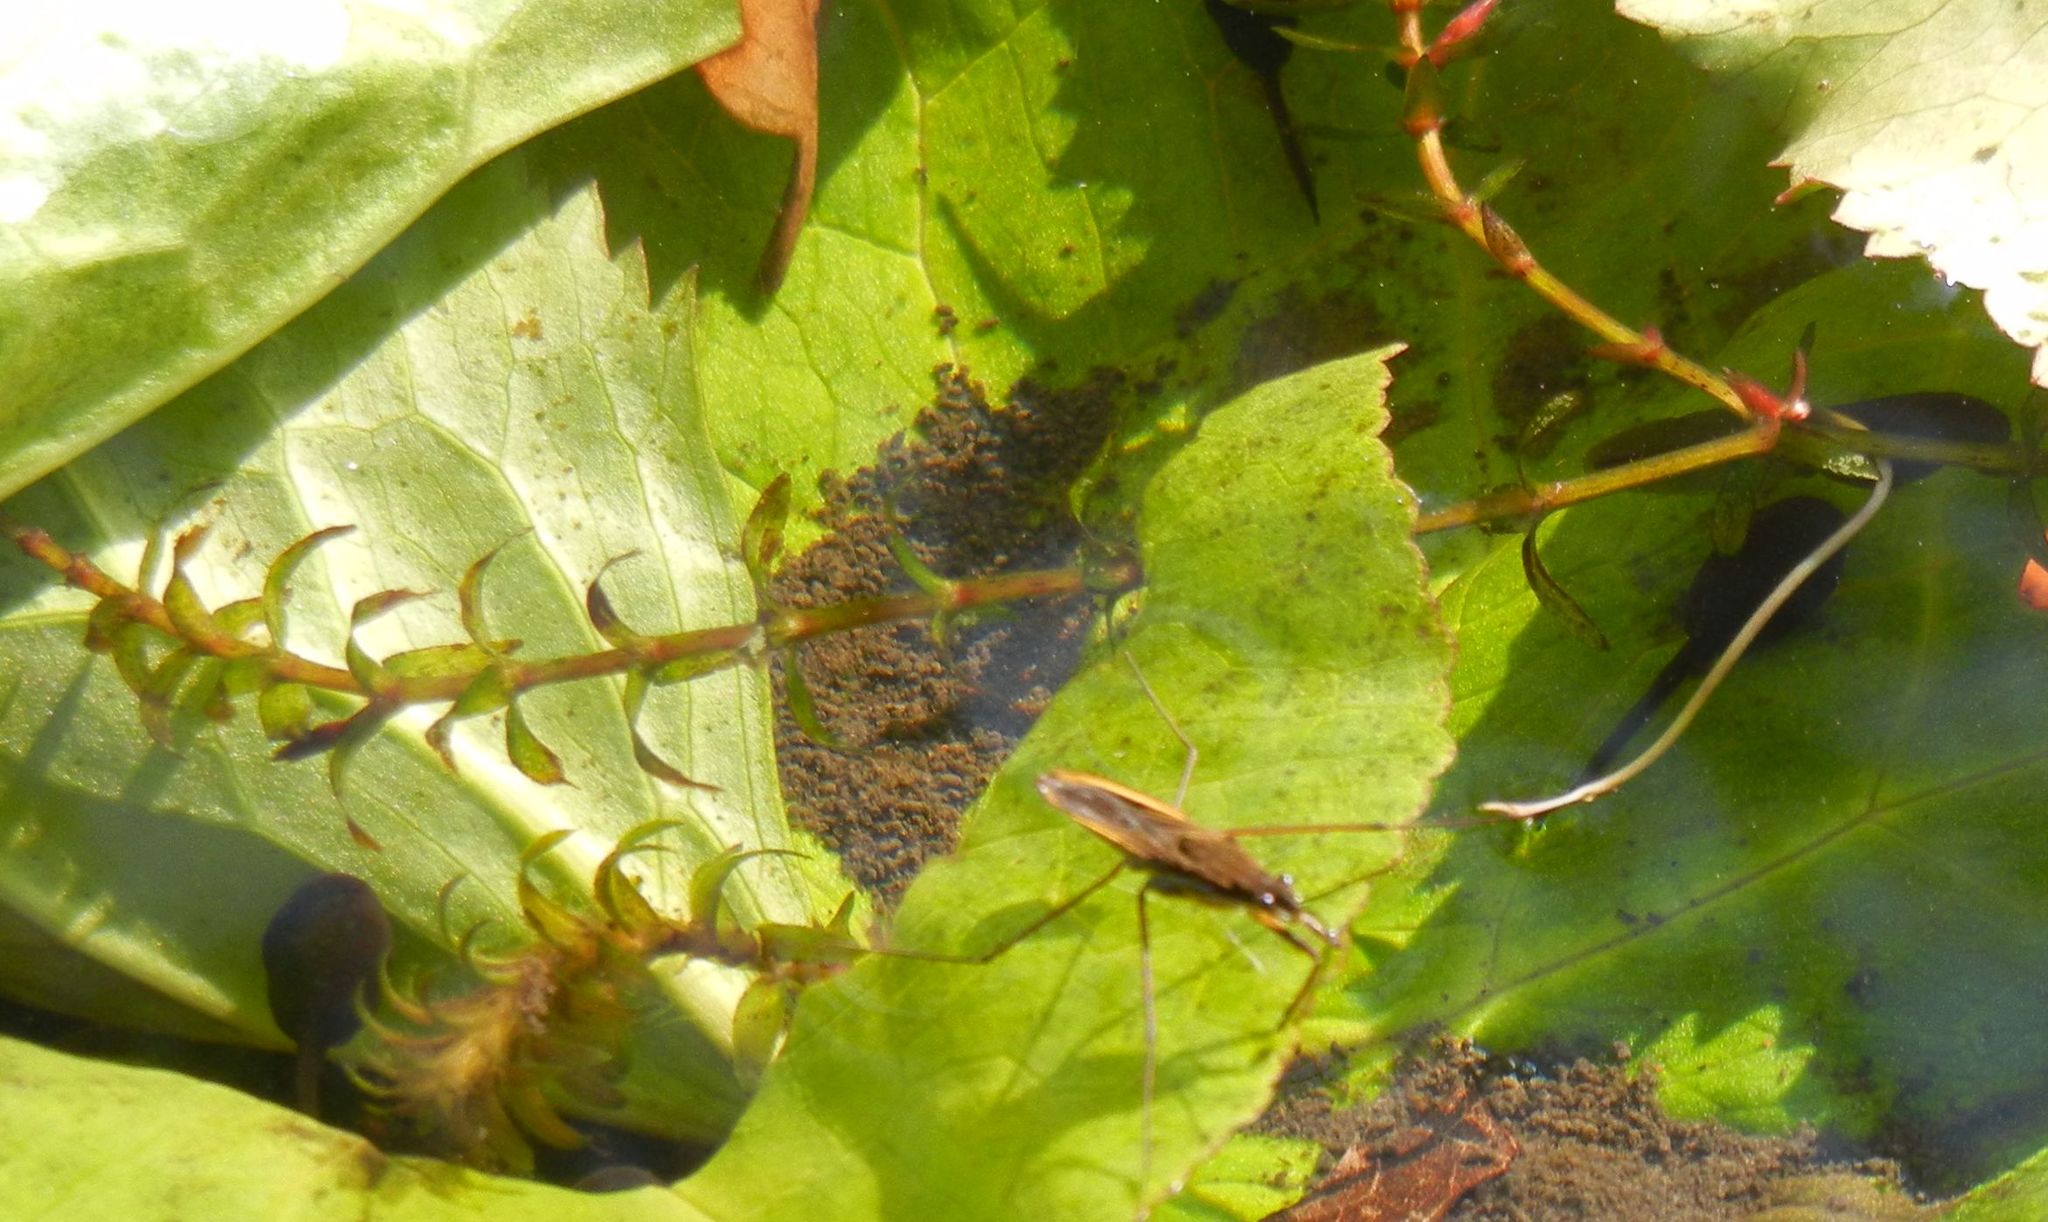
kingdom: Plantae
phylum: Tracheophyta
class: Liliopsida
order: Alismatales
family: Hydrocharitaceae
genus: Elodea
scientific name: Elodea canadensis
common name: Canadian waterweed
